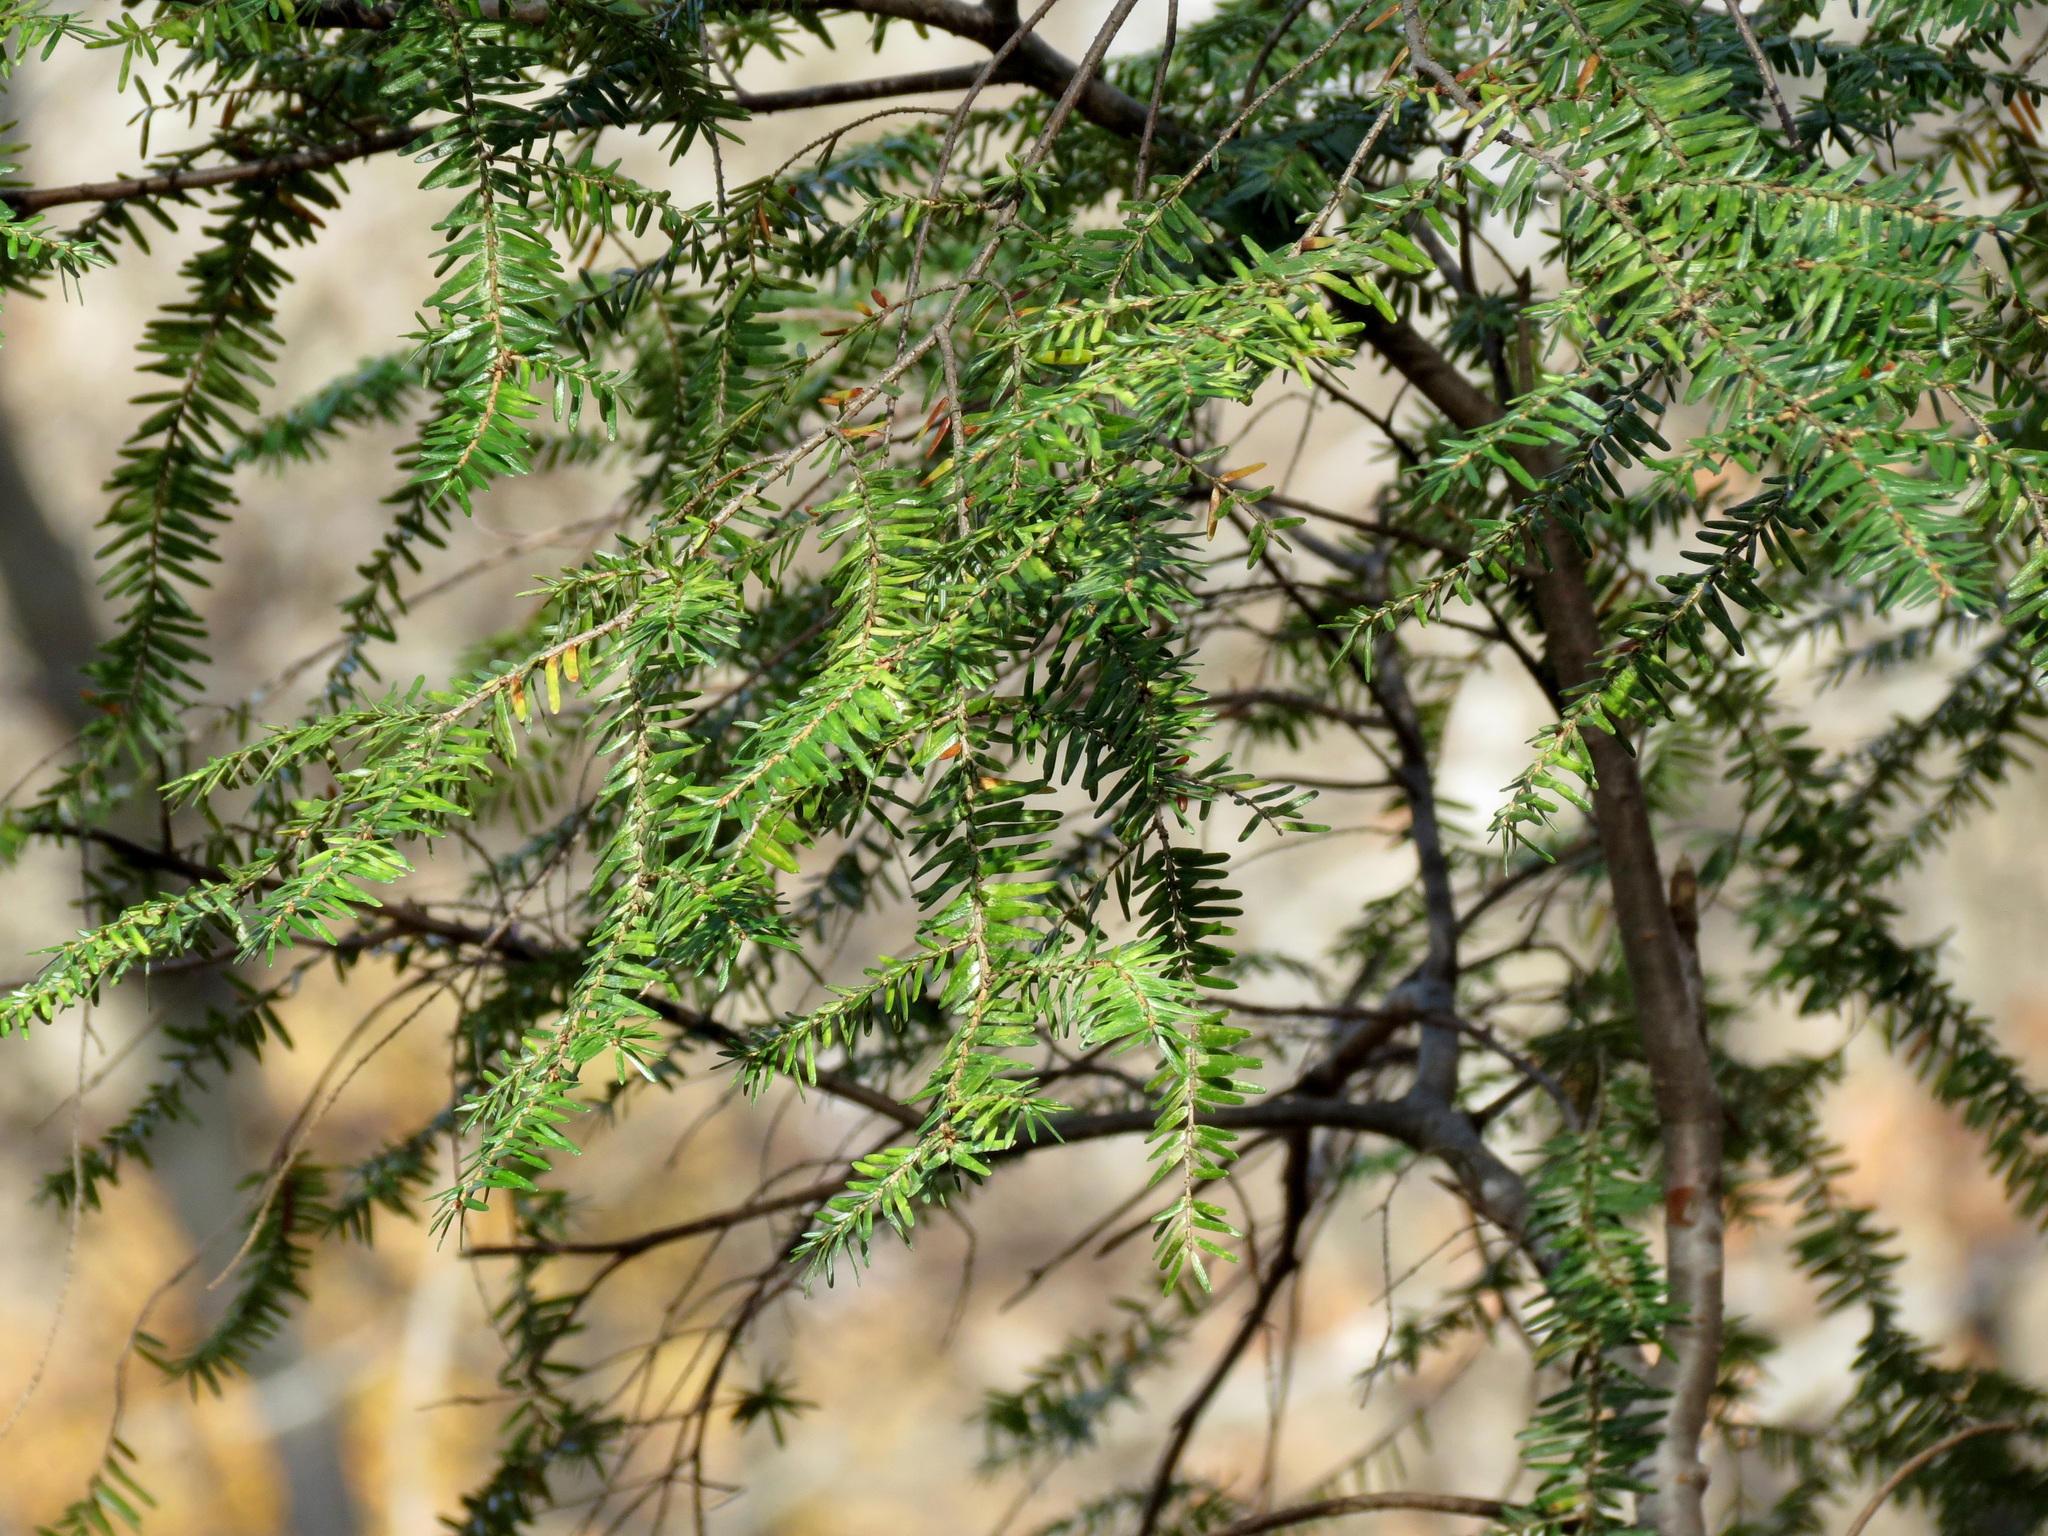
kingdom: Plantae
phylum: Tracheophyta
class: Pinopsida
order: Pinales
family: Pinaceae
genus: Tsuga
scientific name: Tsuga canadensis
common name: Eastern hemlock
